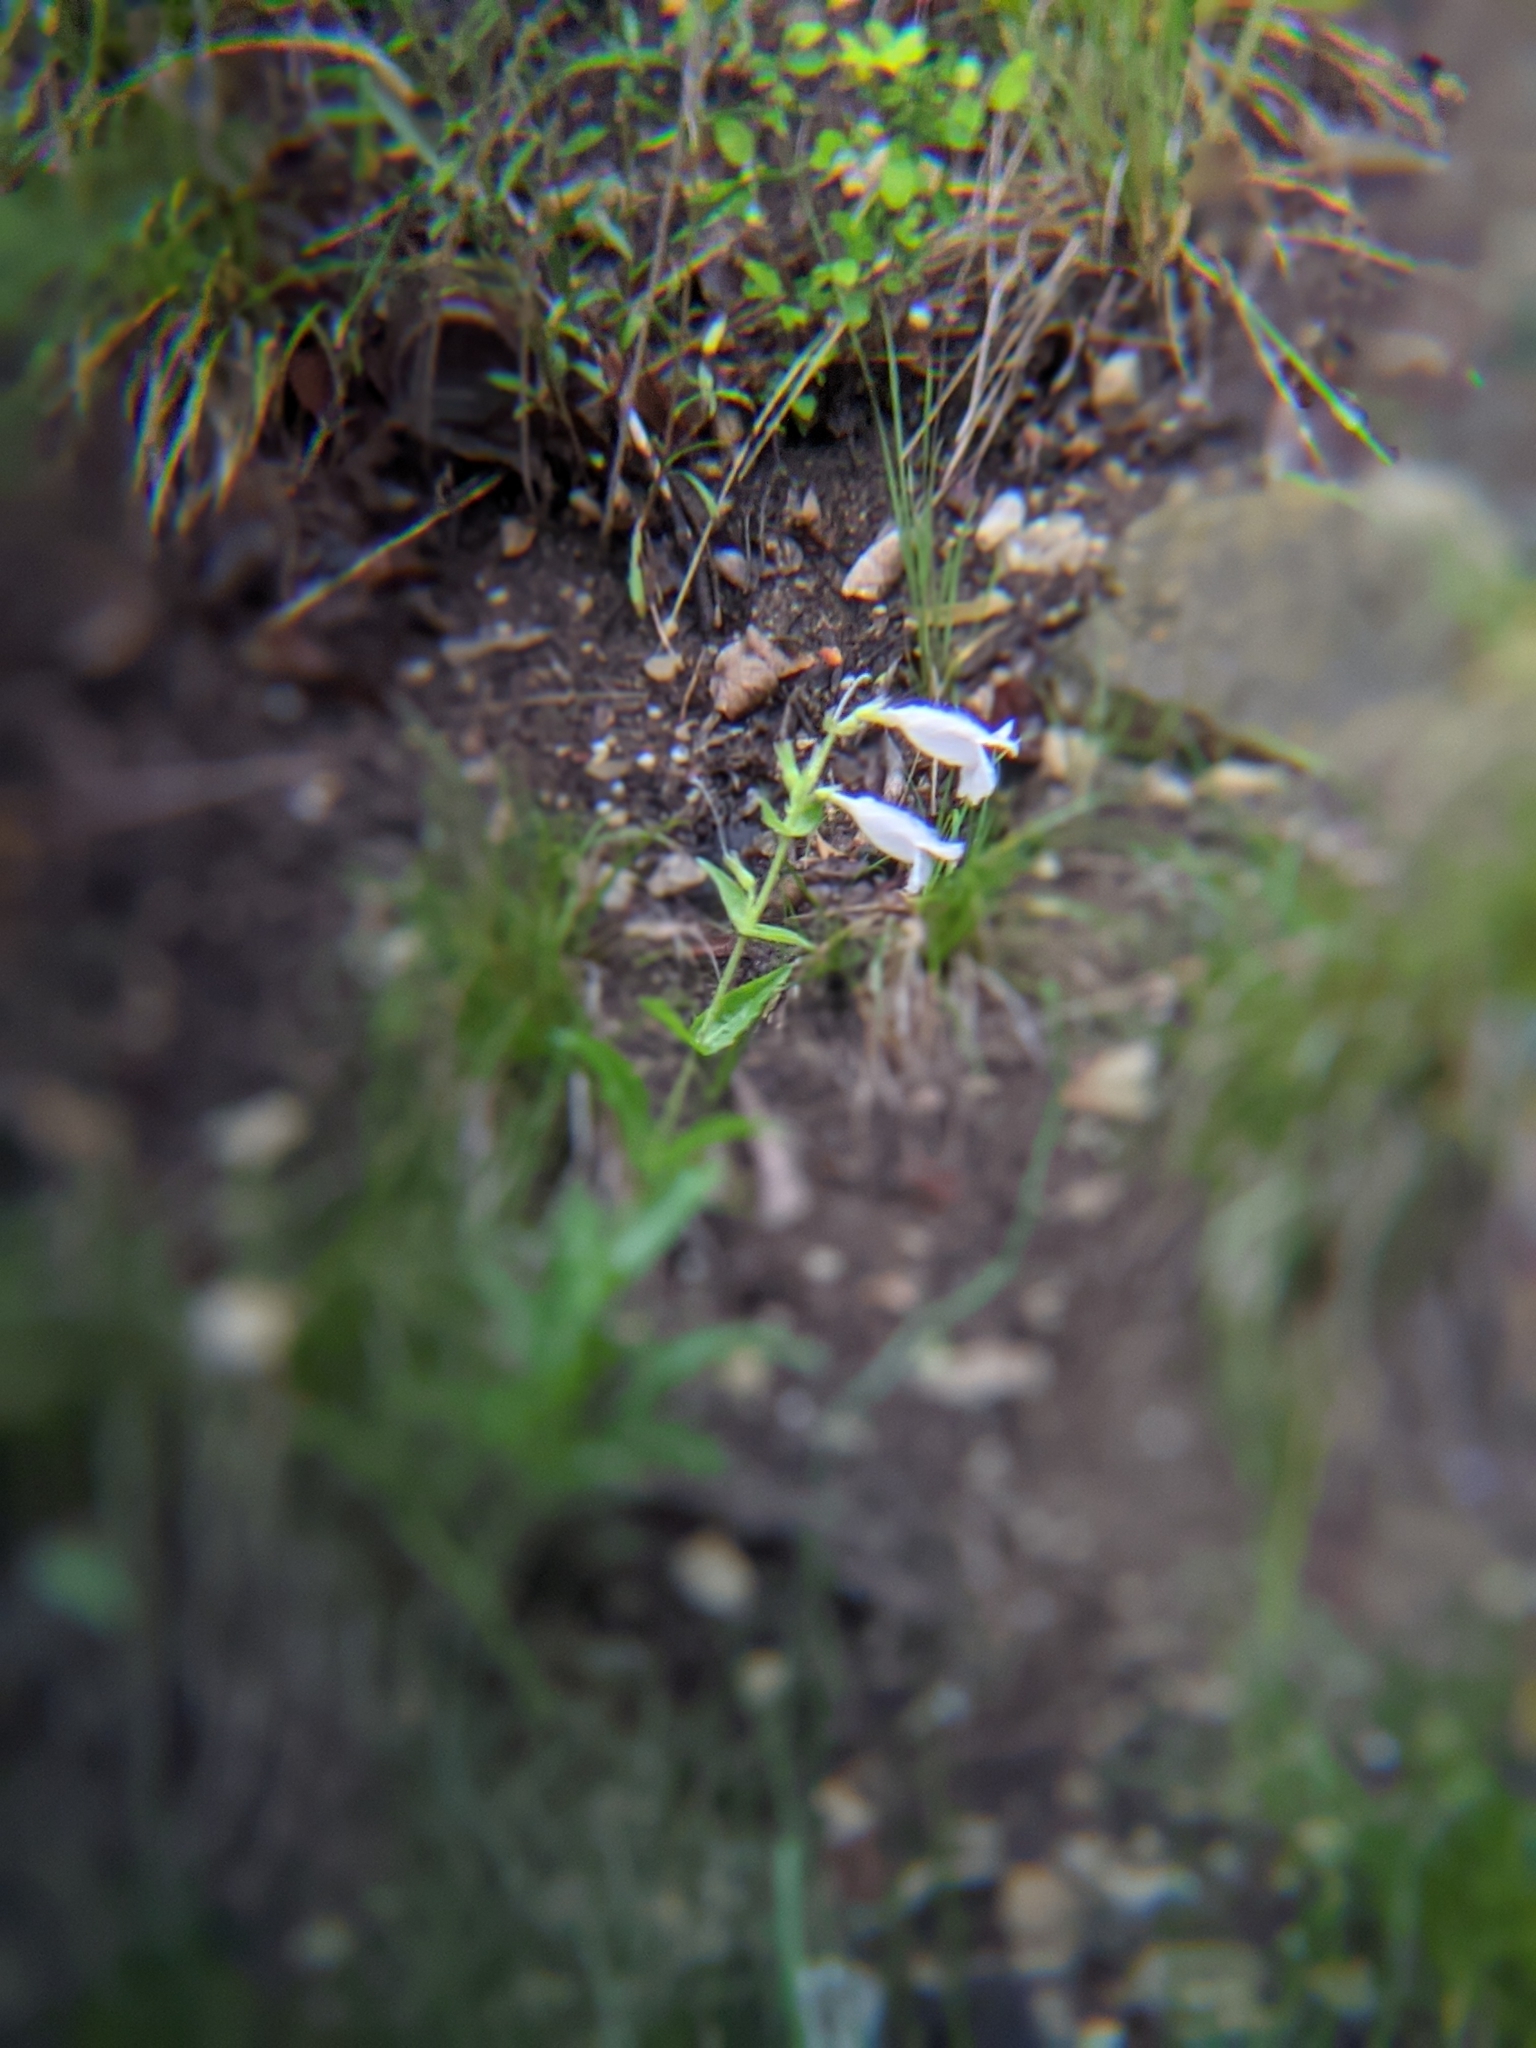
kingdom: Plantae
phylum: Tracheophyta
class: Magnoliopsida
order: Lamiales
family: Plantaginaceae
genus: Penstemon
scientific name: Penstemon cobaea
